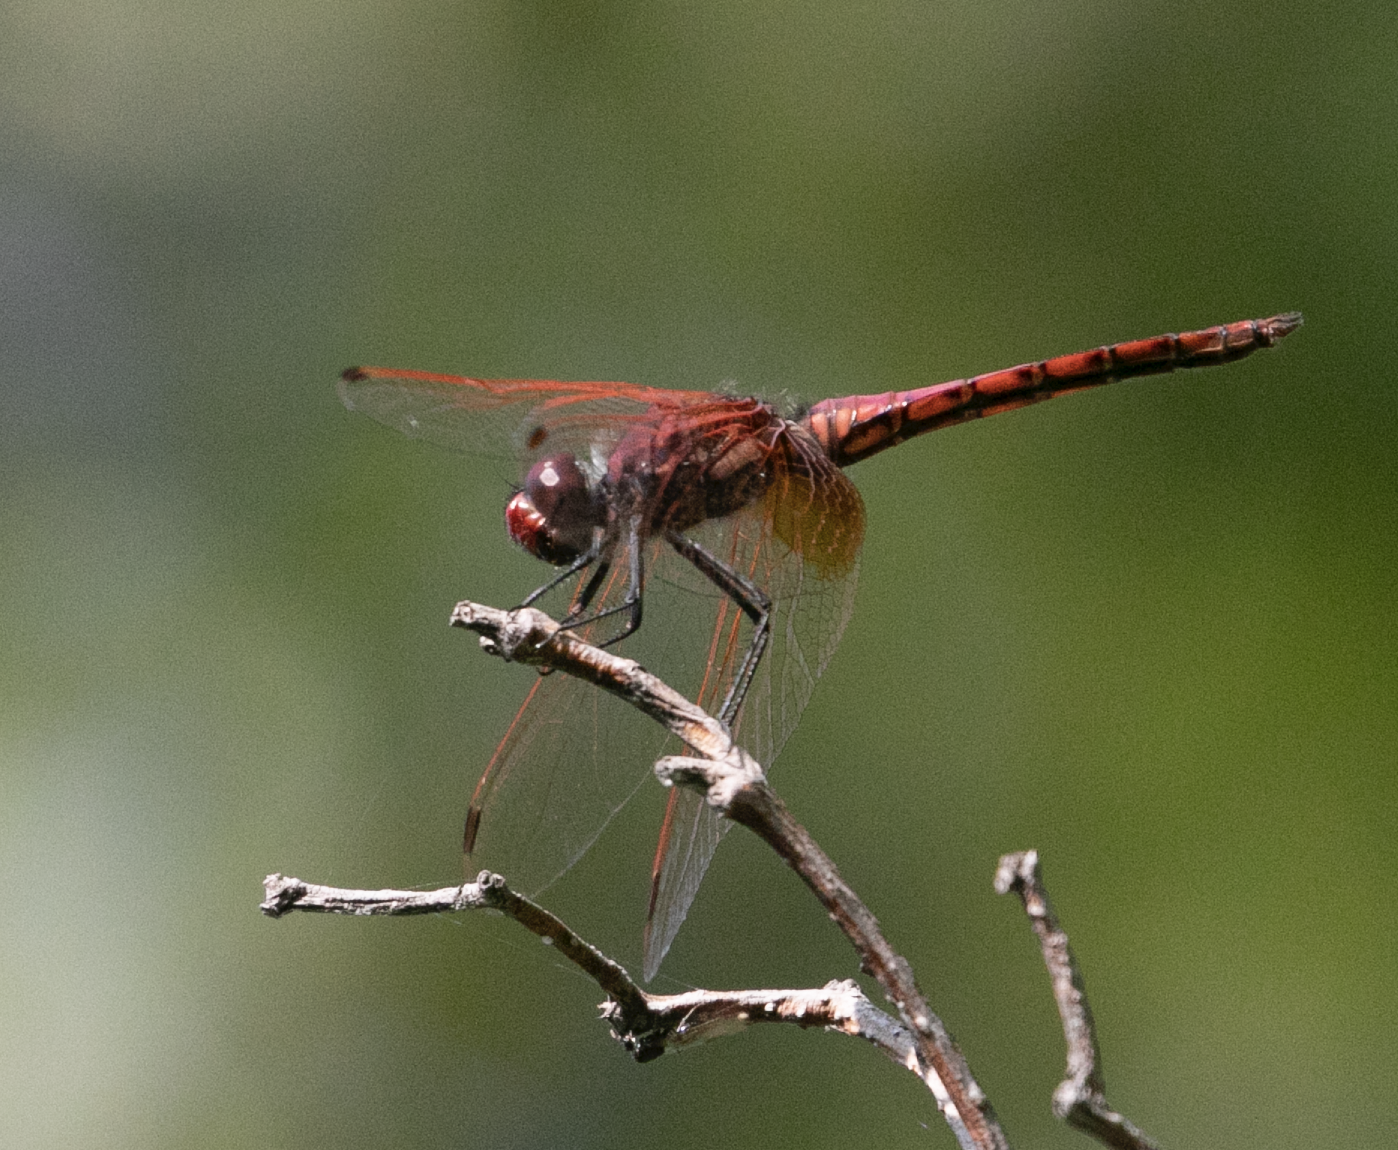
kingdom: Animalia
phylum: Arthropoda
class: Insecta
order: Odonata
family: Libellulidae
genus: Trithemis
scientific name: Trithemis annulata
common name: Violet dropwing
